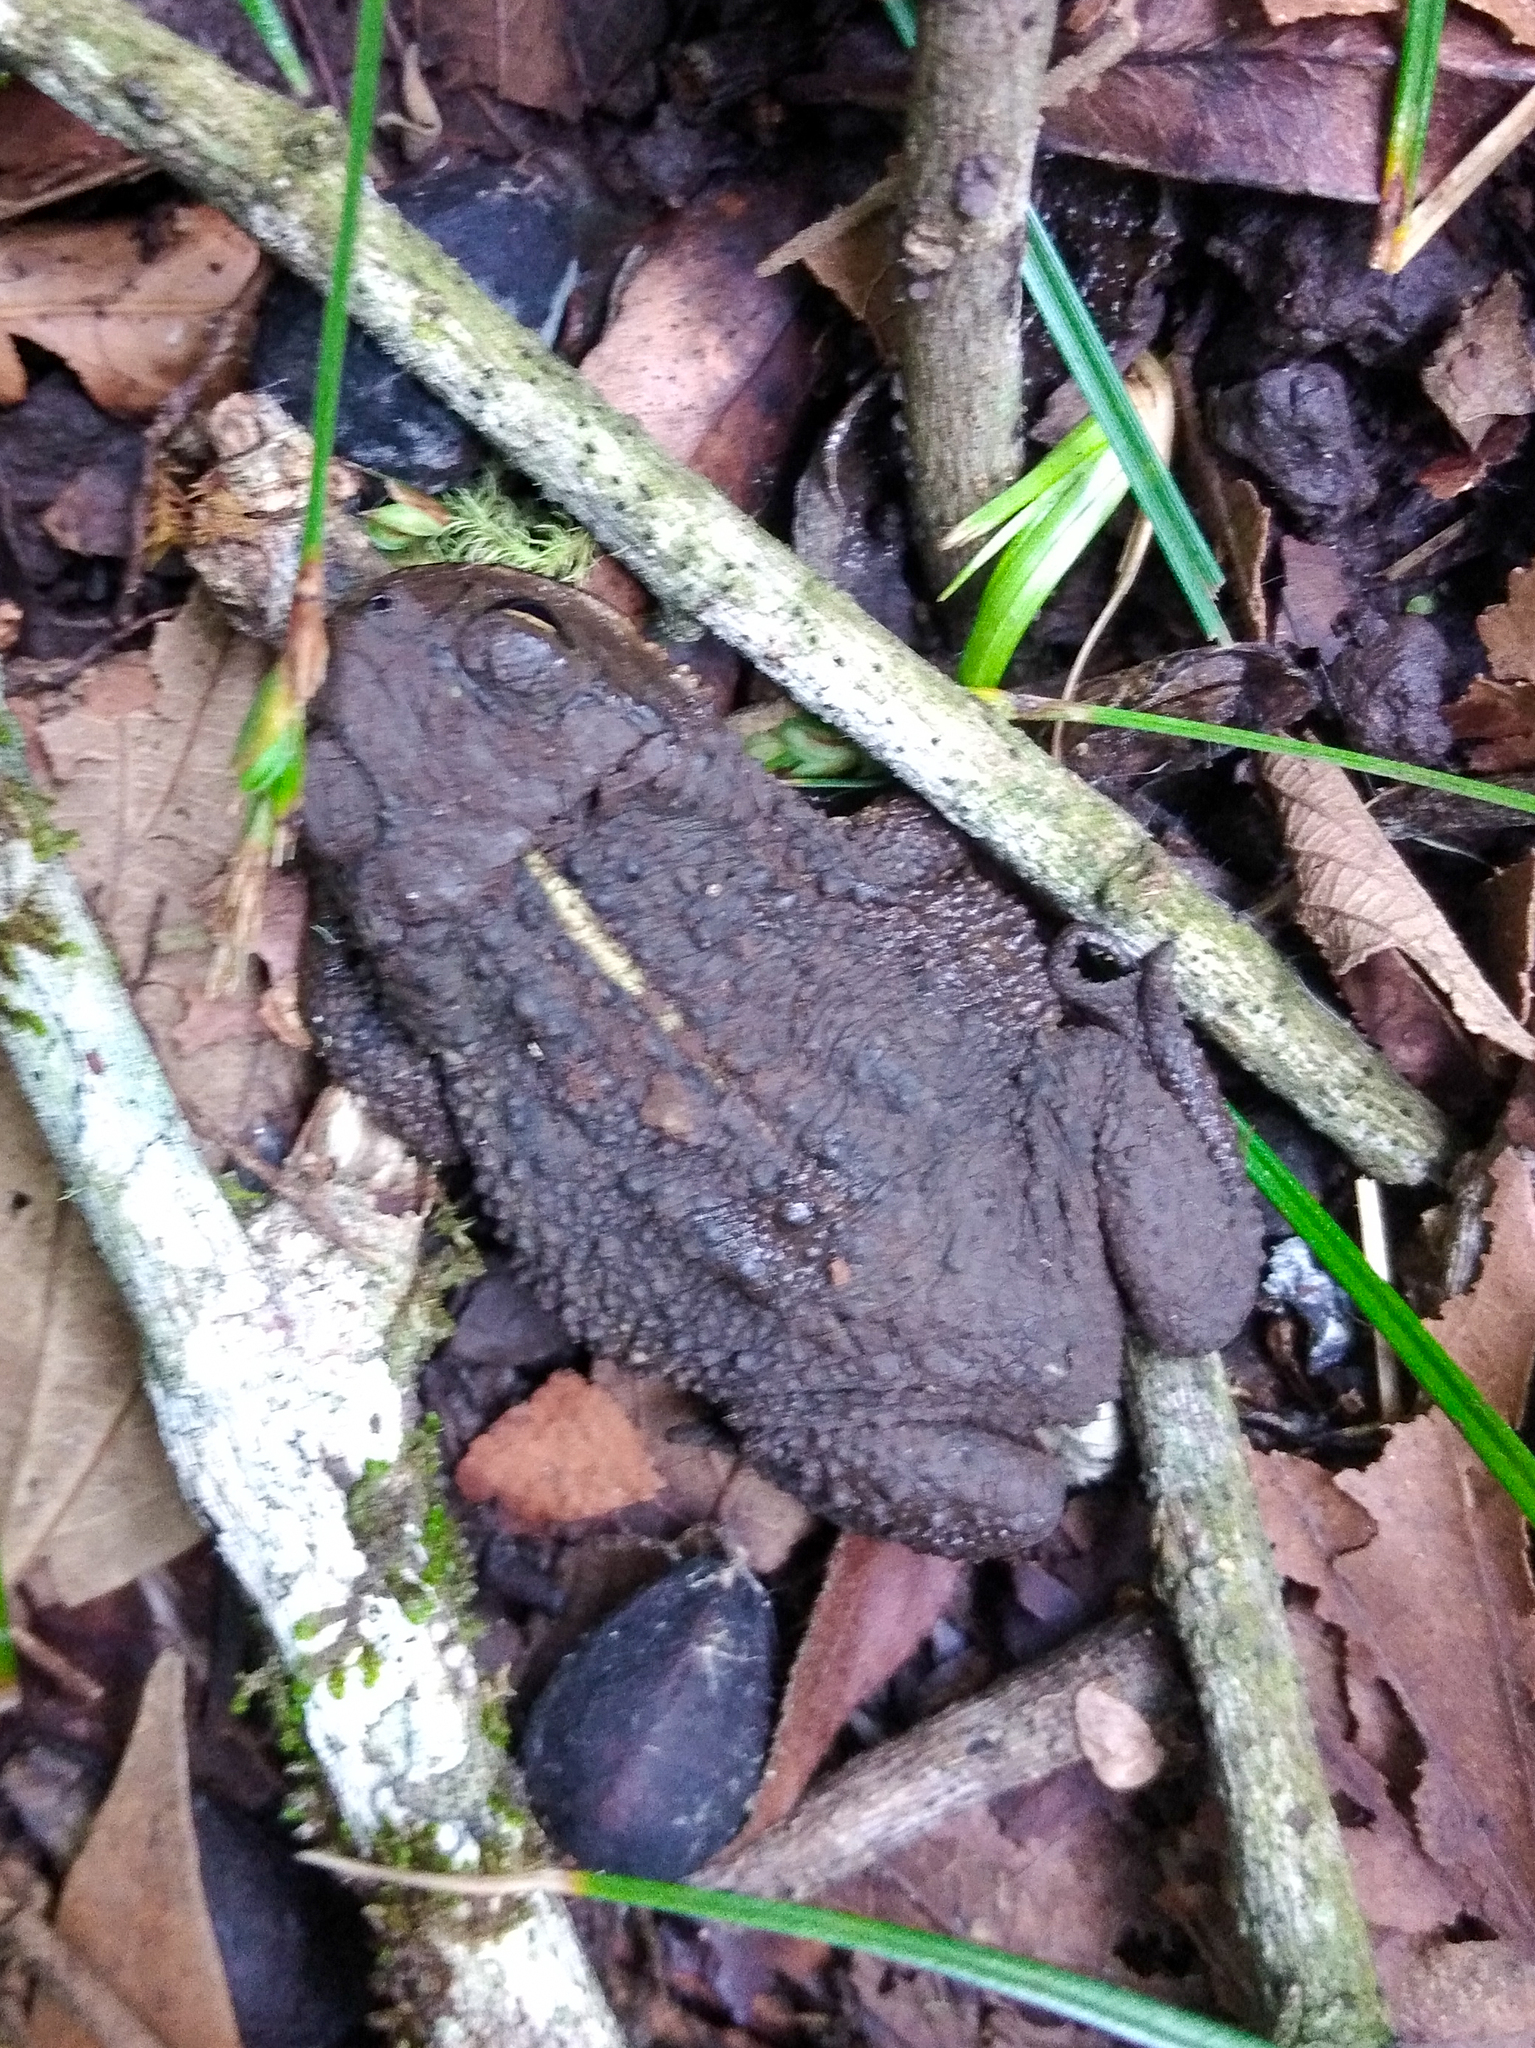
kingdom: Animalia
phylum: Chordata
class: Amphibia
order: Anura
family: Bufonidae
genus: Rhinella
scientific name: Rhinella dorbignyi
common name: D´orbigny’s toad
